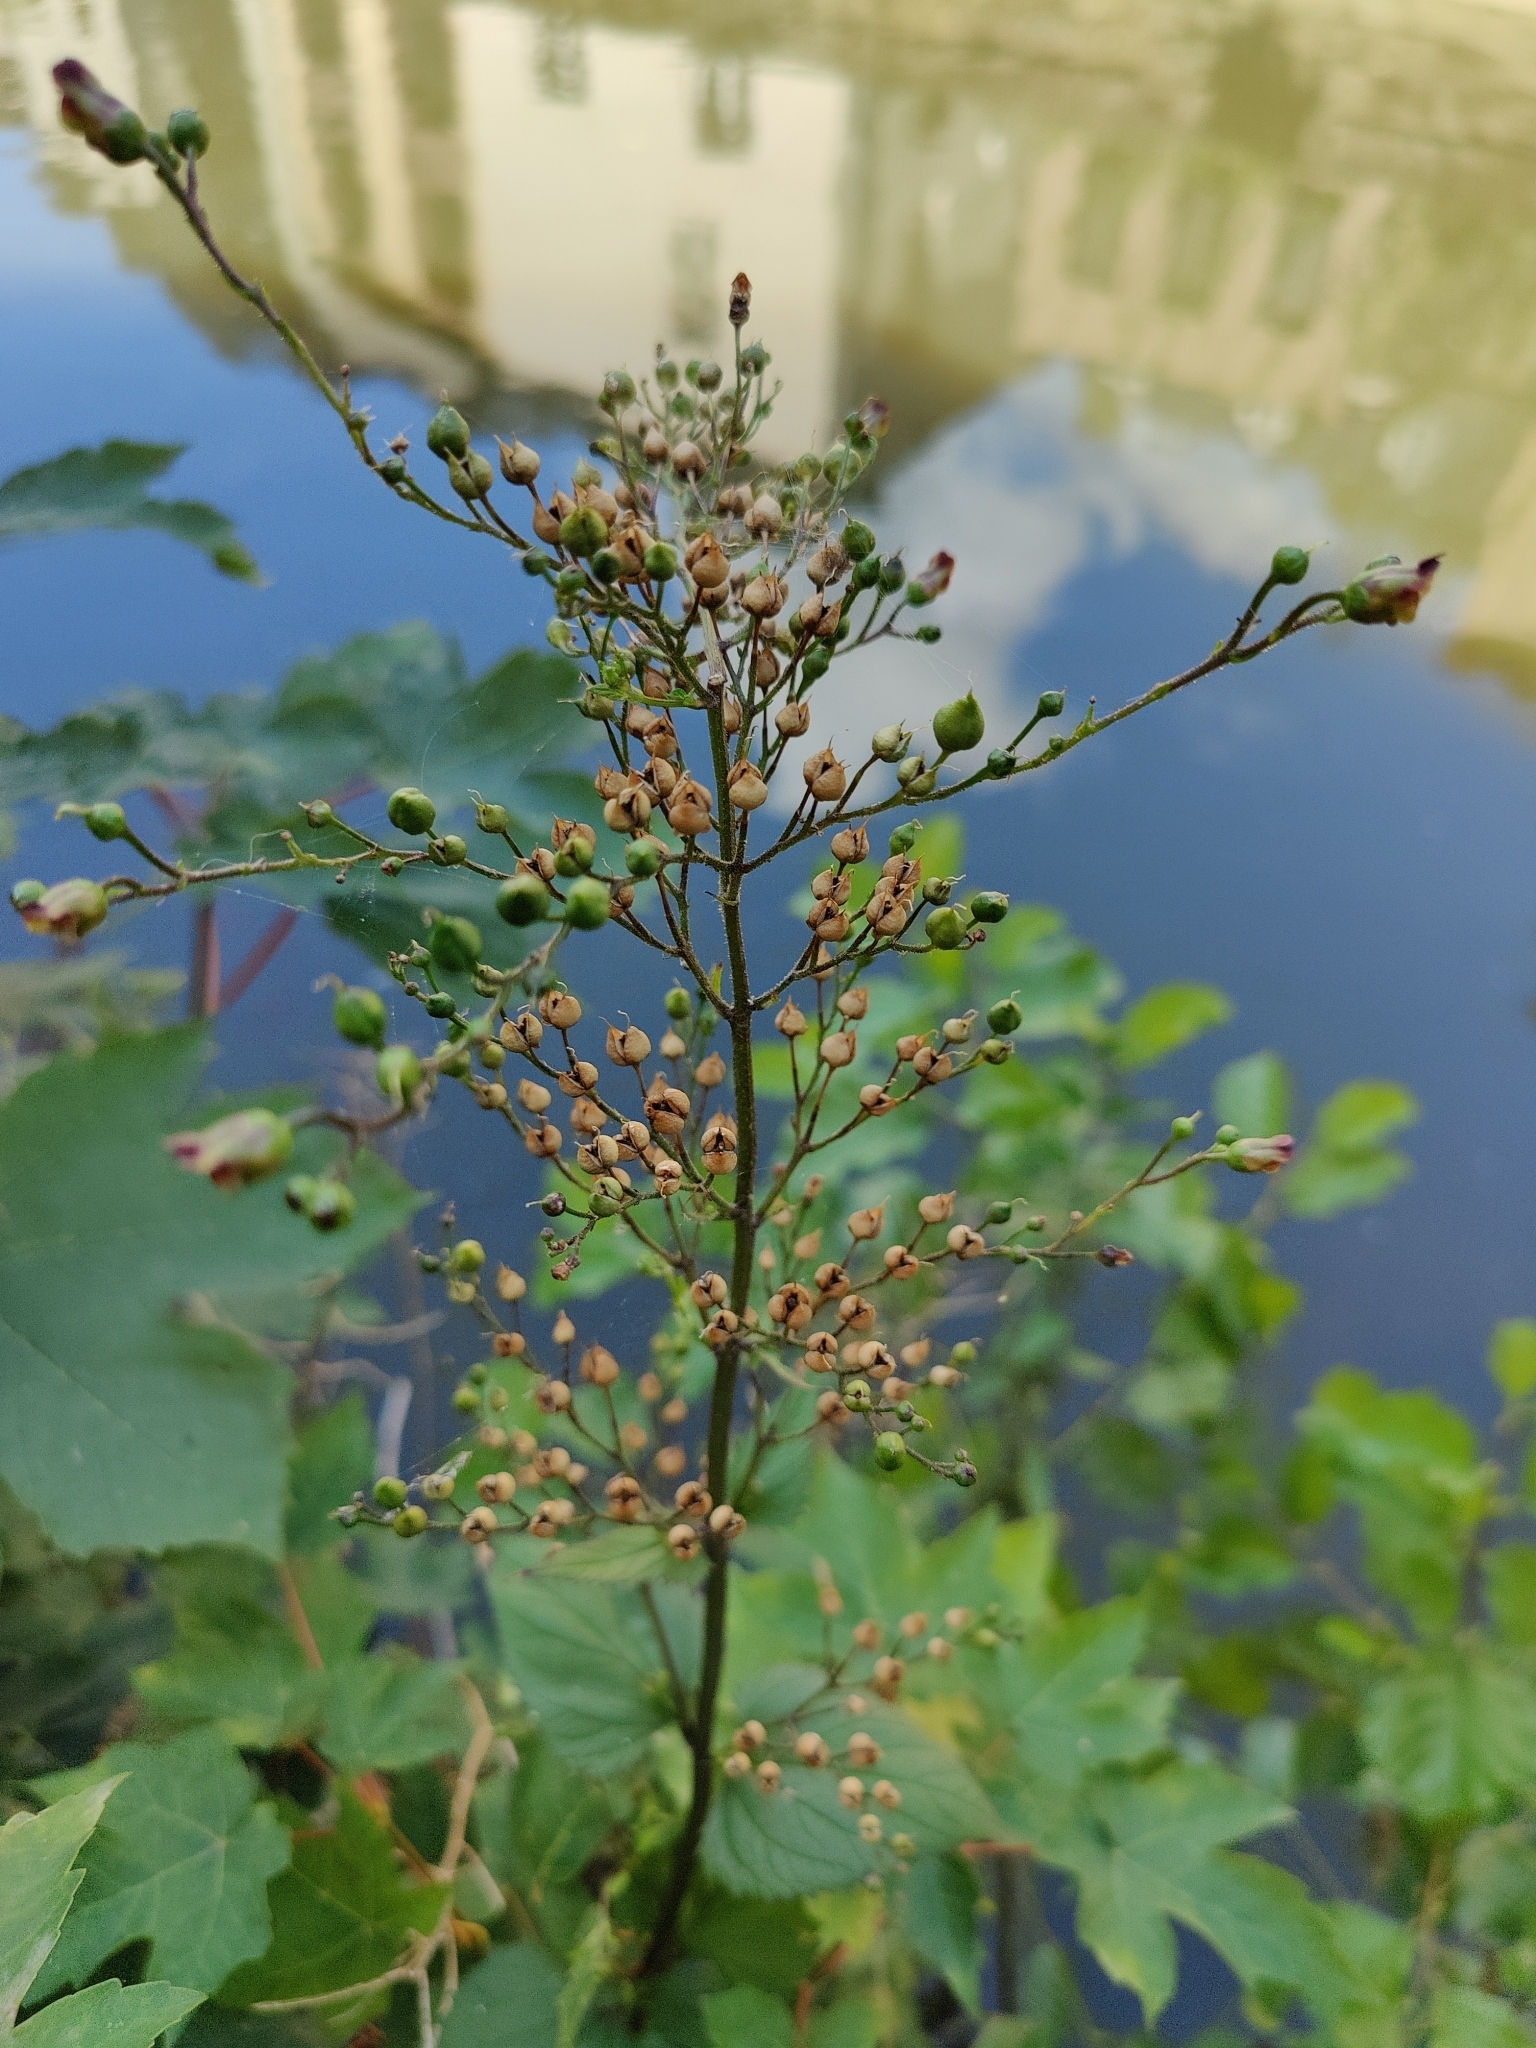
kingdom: Plantae
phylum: Tracheophyta
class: Magnoliopsida
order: Lamiales
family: Scrophulariaceae
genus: Scrophularia
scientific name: Scrophularia nodosa
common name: Common figwort
